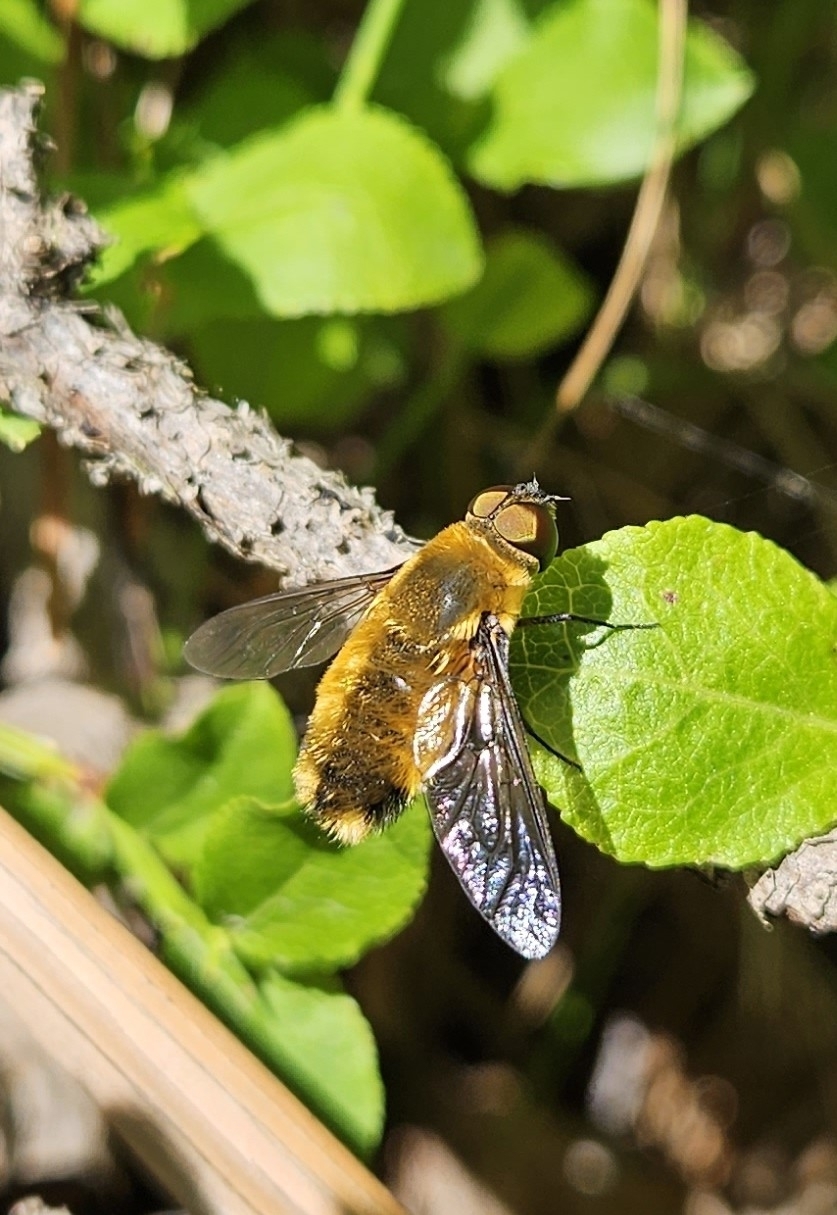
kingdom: Animalia
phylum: Arthropoda
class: Insecta
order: Diptera
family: Bombyliidae
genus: Villa
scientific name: Villa hottentotta
